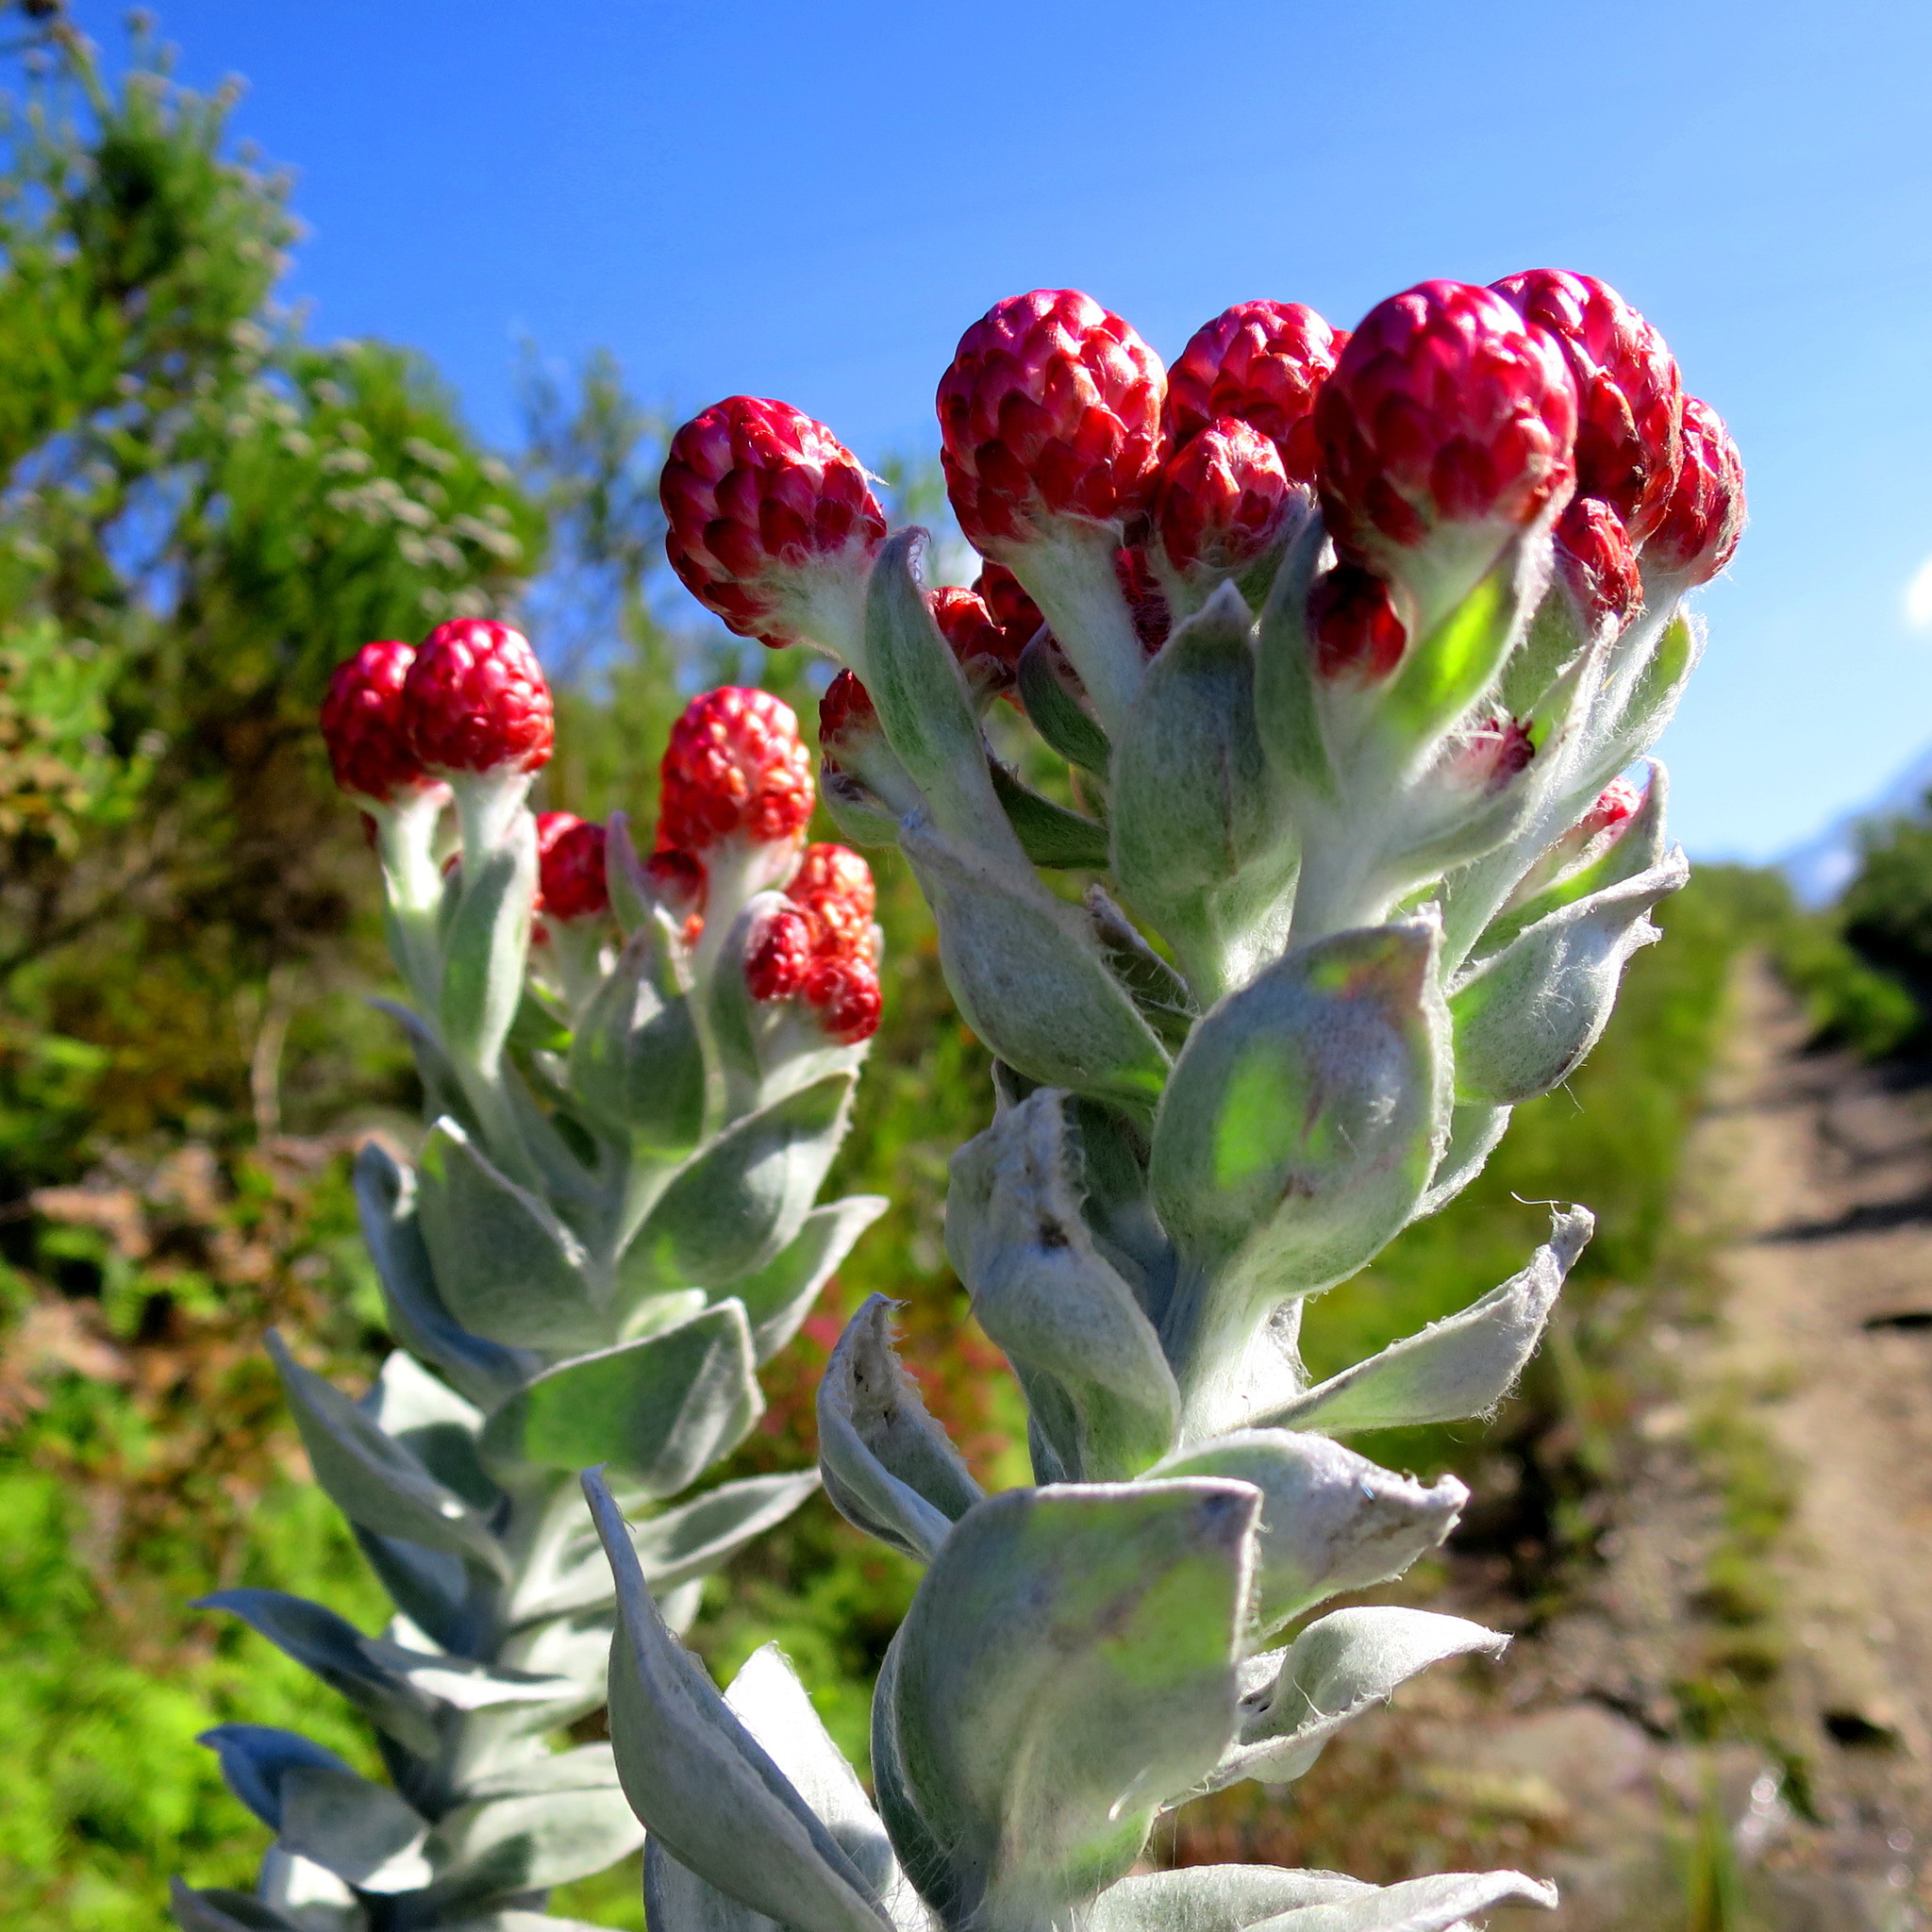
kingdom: Plantae
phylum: Tracheophyta
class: Magnoliopsida
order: Asterales
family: Asteraceae
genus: Syncarpha
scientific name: Syncarpha eximia
